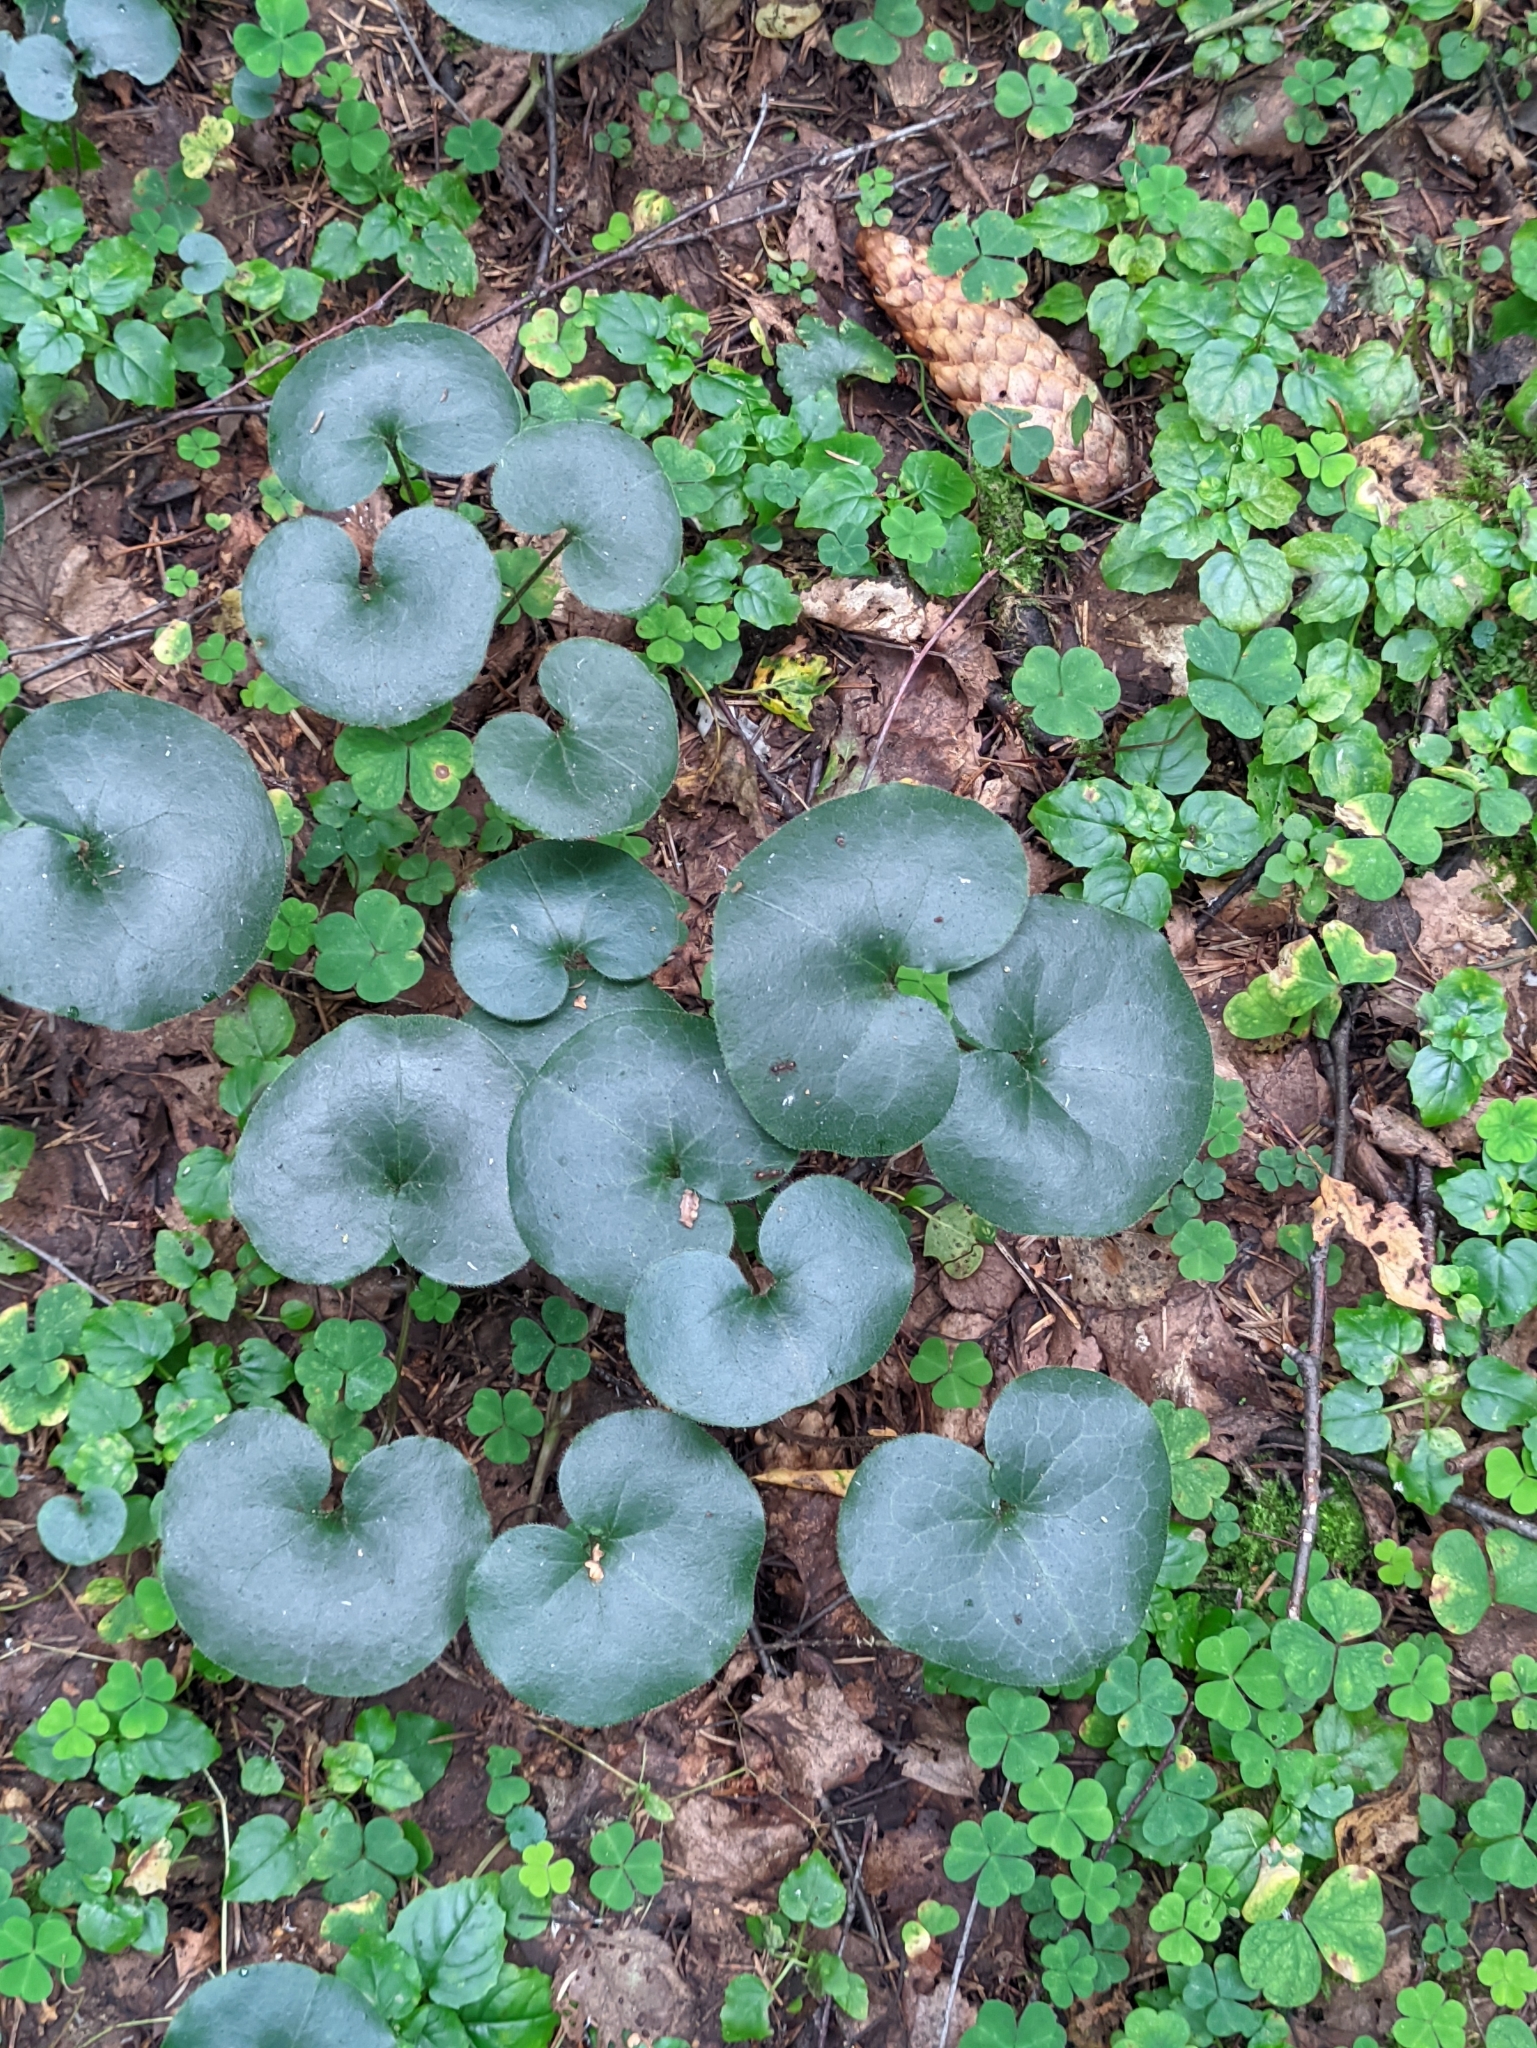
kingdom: Plantae
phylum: Tracheophyta
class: Magnoliopsida
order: Piperales
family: Aristolochiaceae
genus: Asarum
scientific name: Asarum europaeum
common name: Asarabacca
